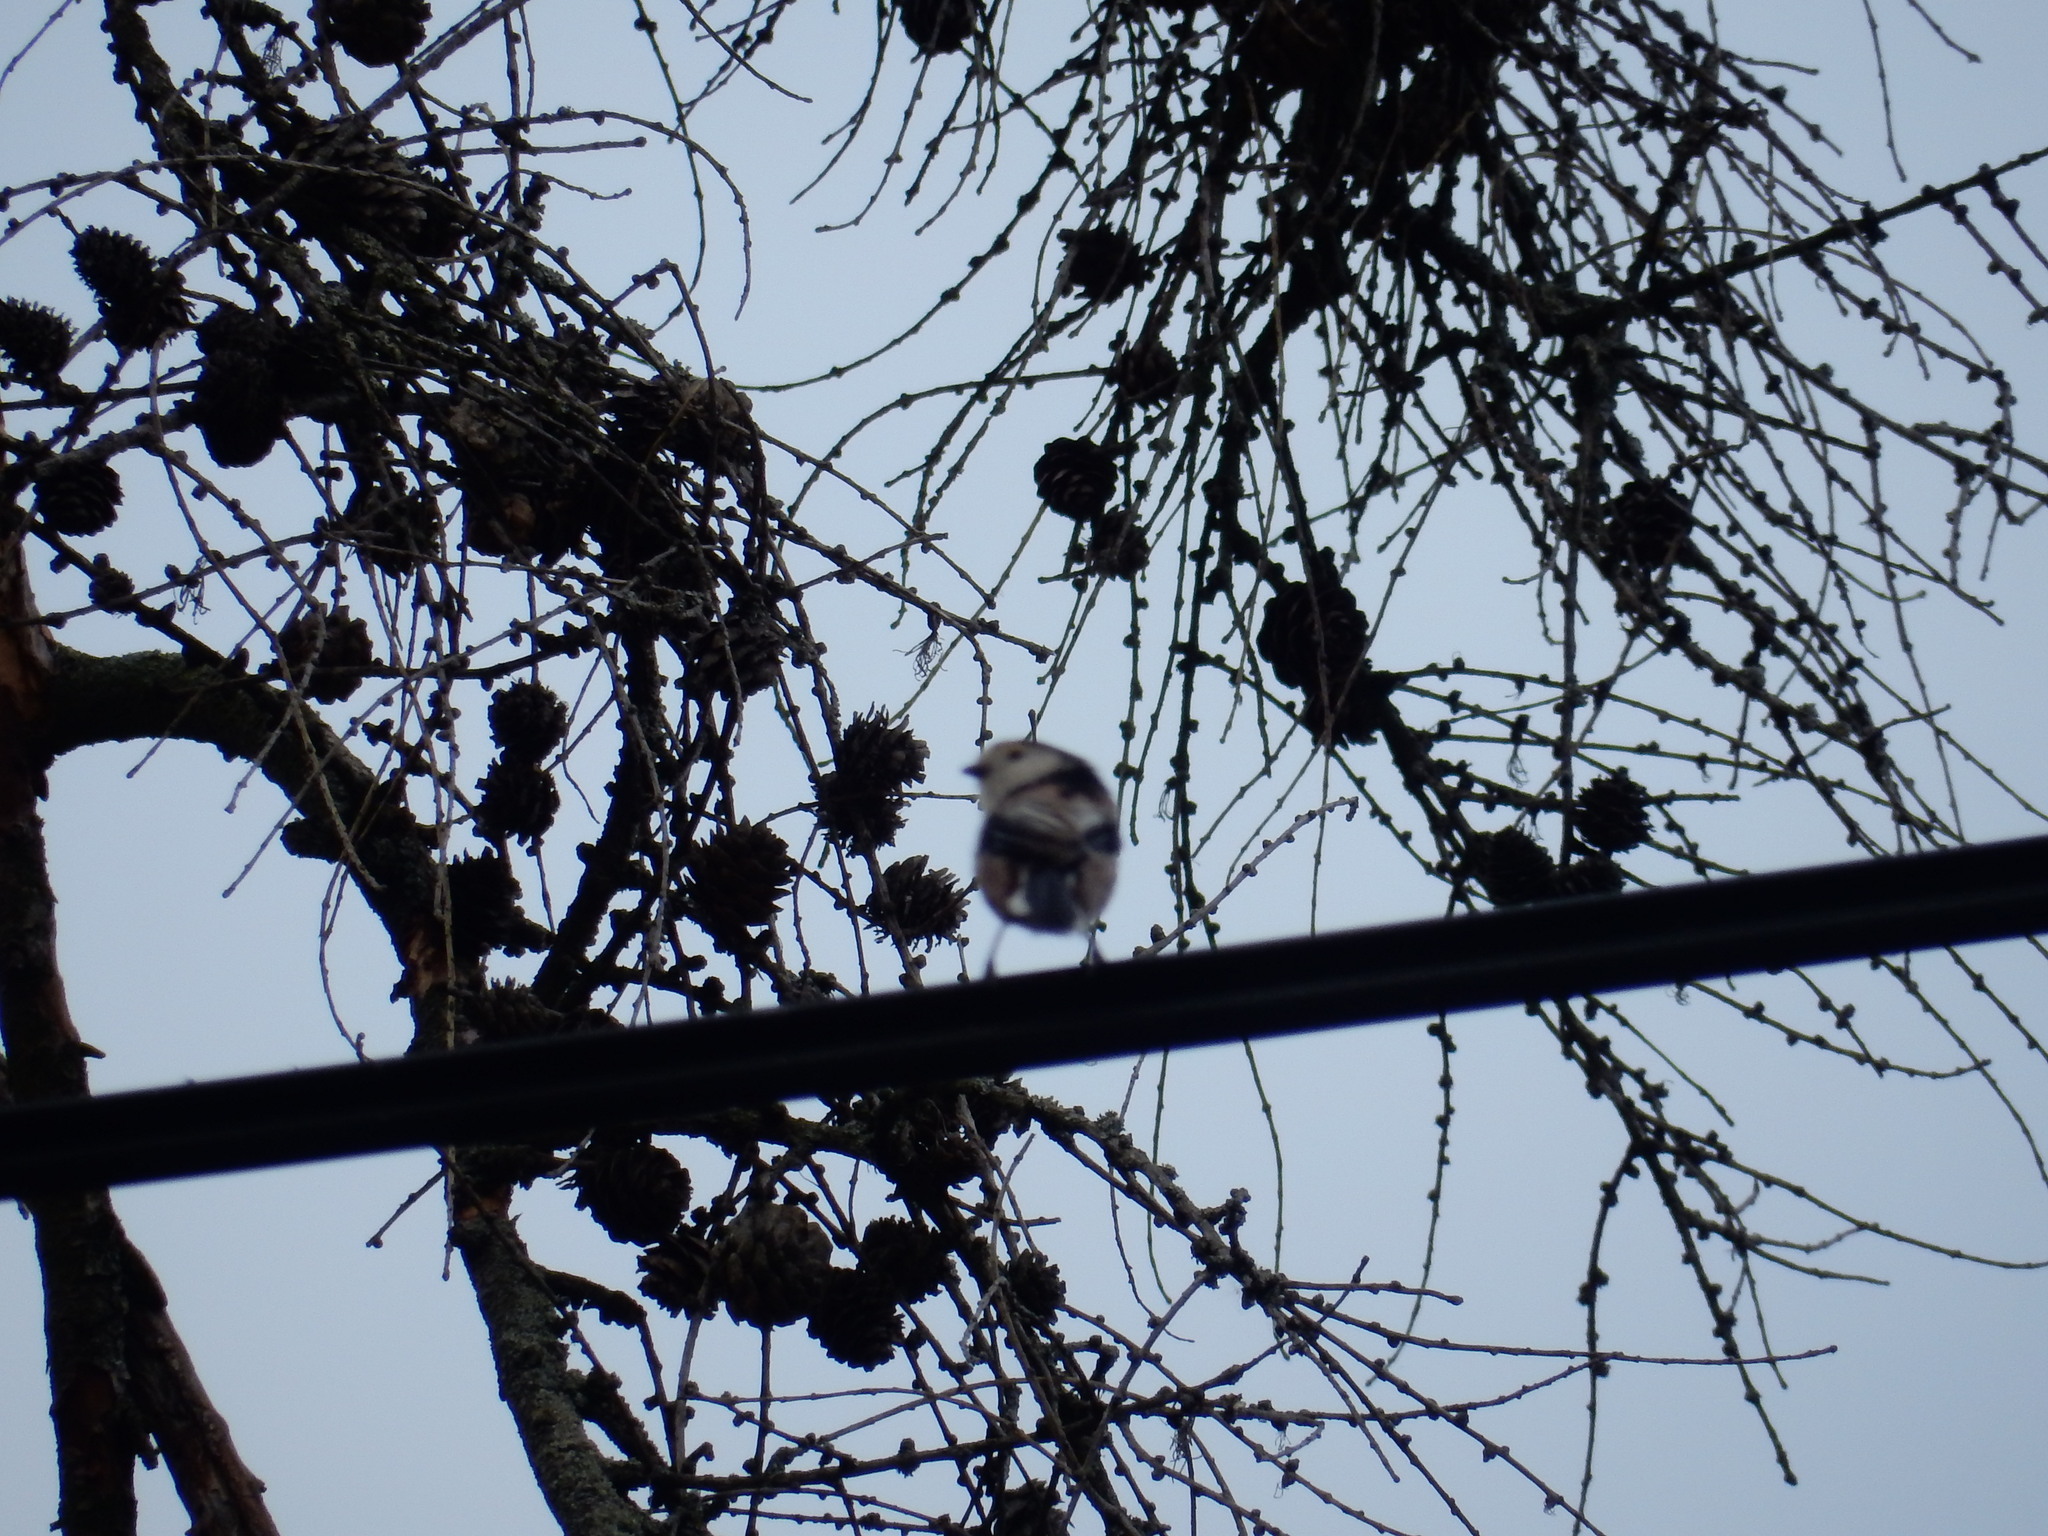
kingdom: Animalia
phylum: Chordata
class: Aves
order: Passeriformes
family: Aegithalidae
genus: Aegithalos
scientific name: Aegithalos caudatus
